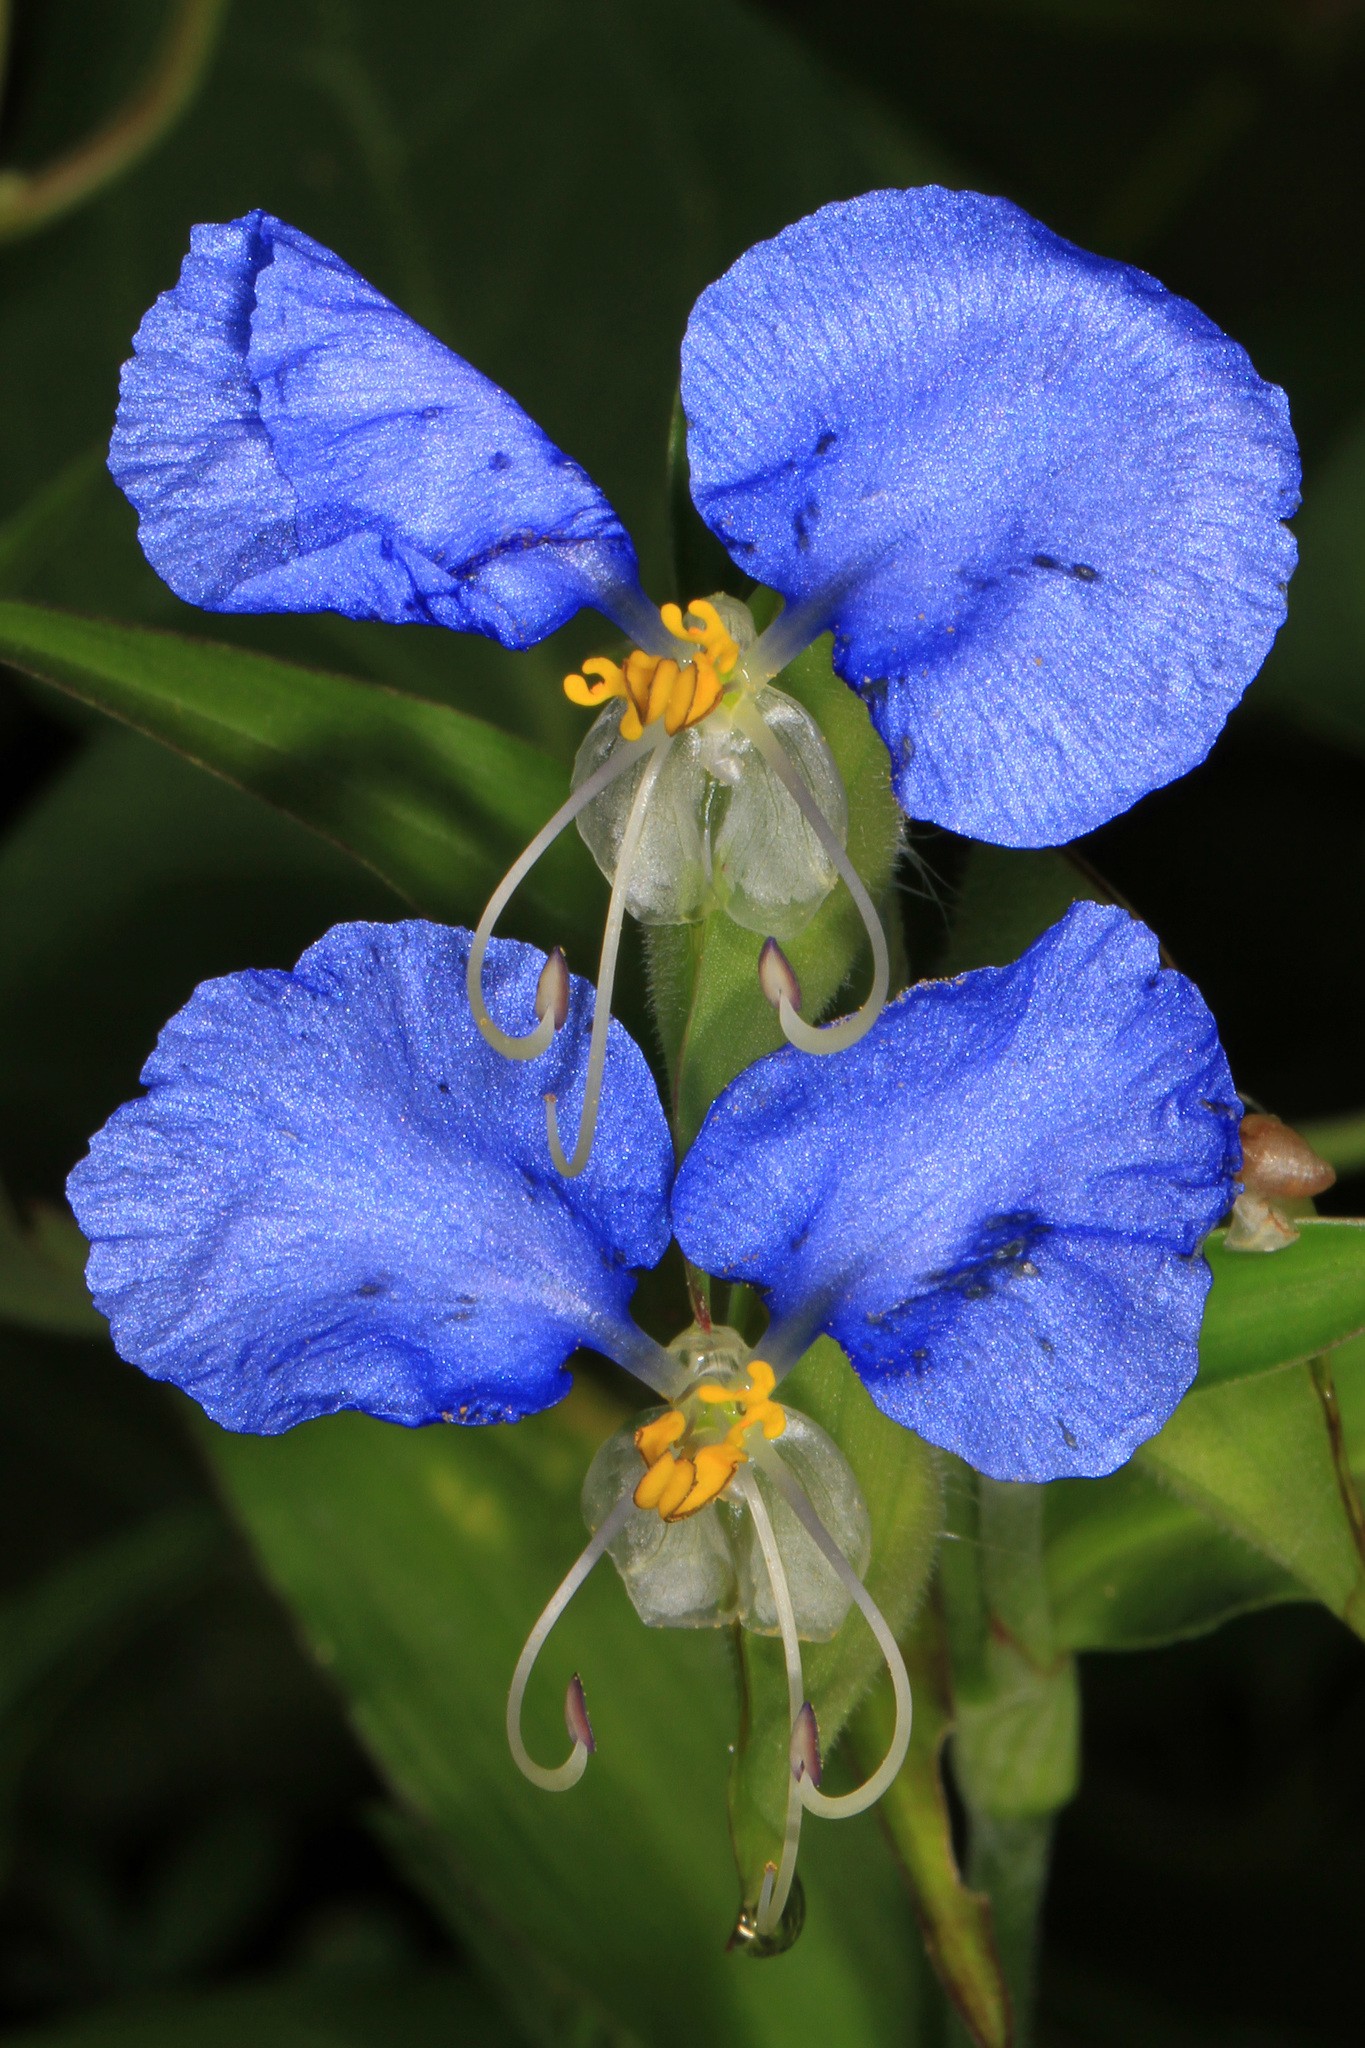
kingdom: Plantae
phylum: Tracheophyta
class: Liliopsida
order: Commelinales
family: Commelinaceae
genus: Commelina
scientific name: Commelina erecta
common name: Blousel blommetjie
